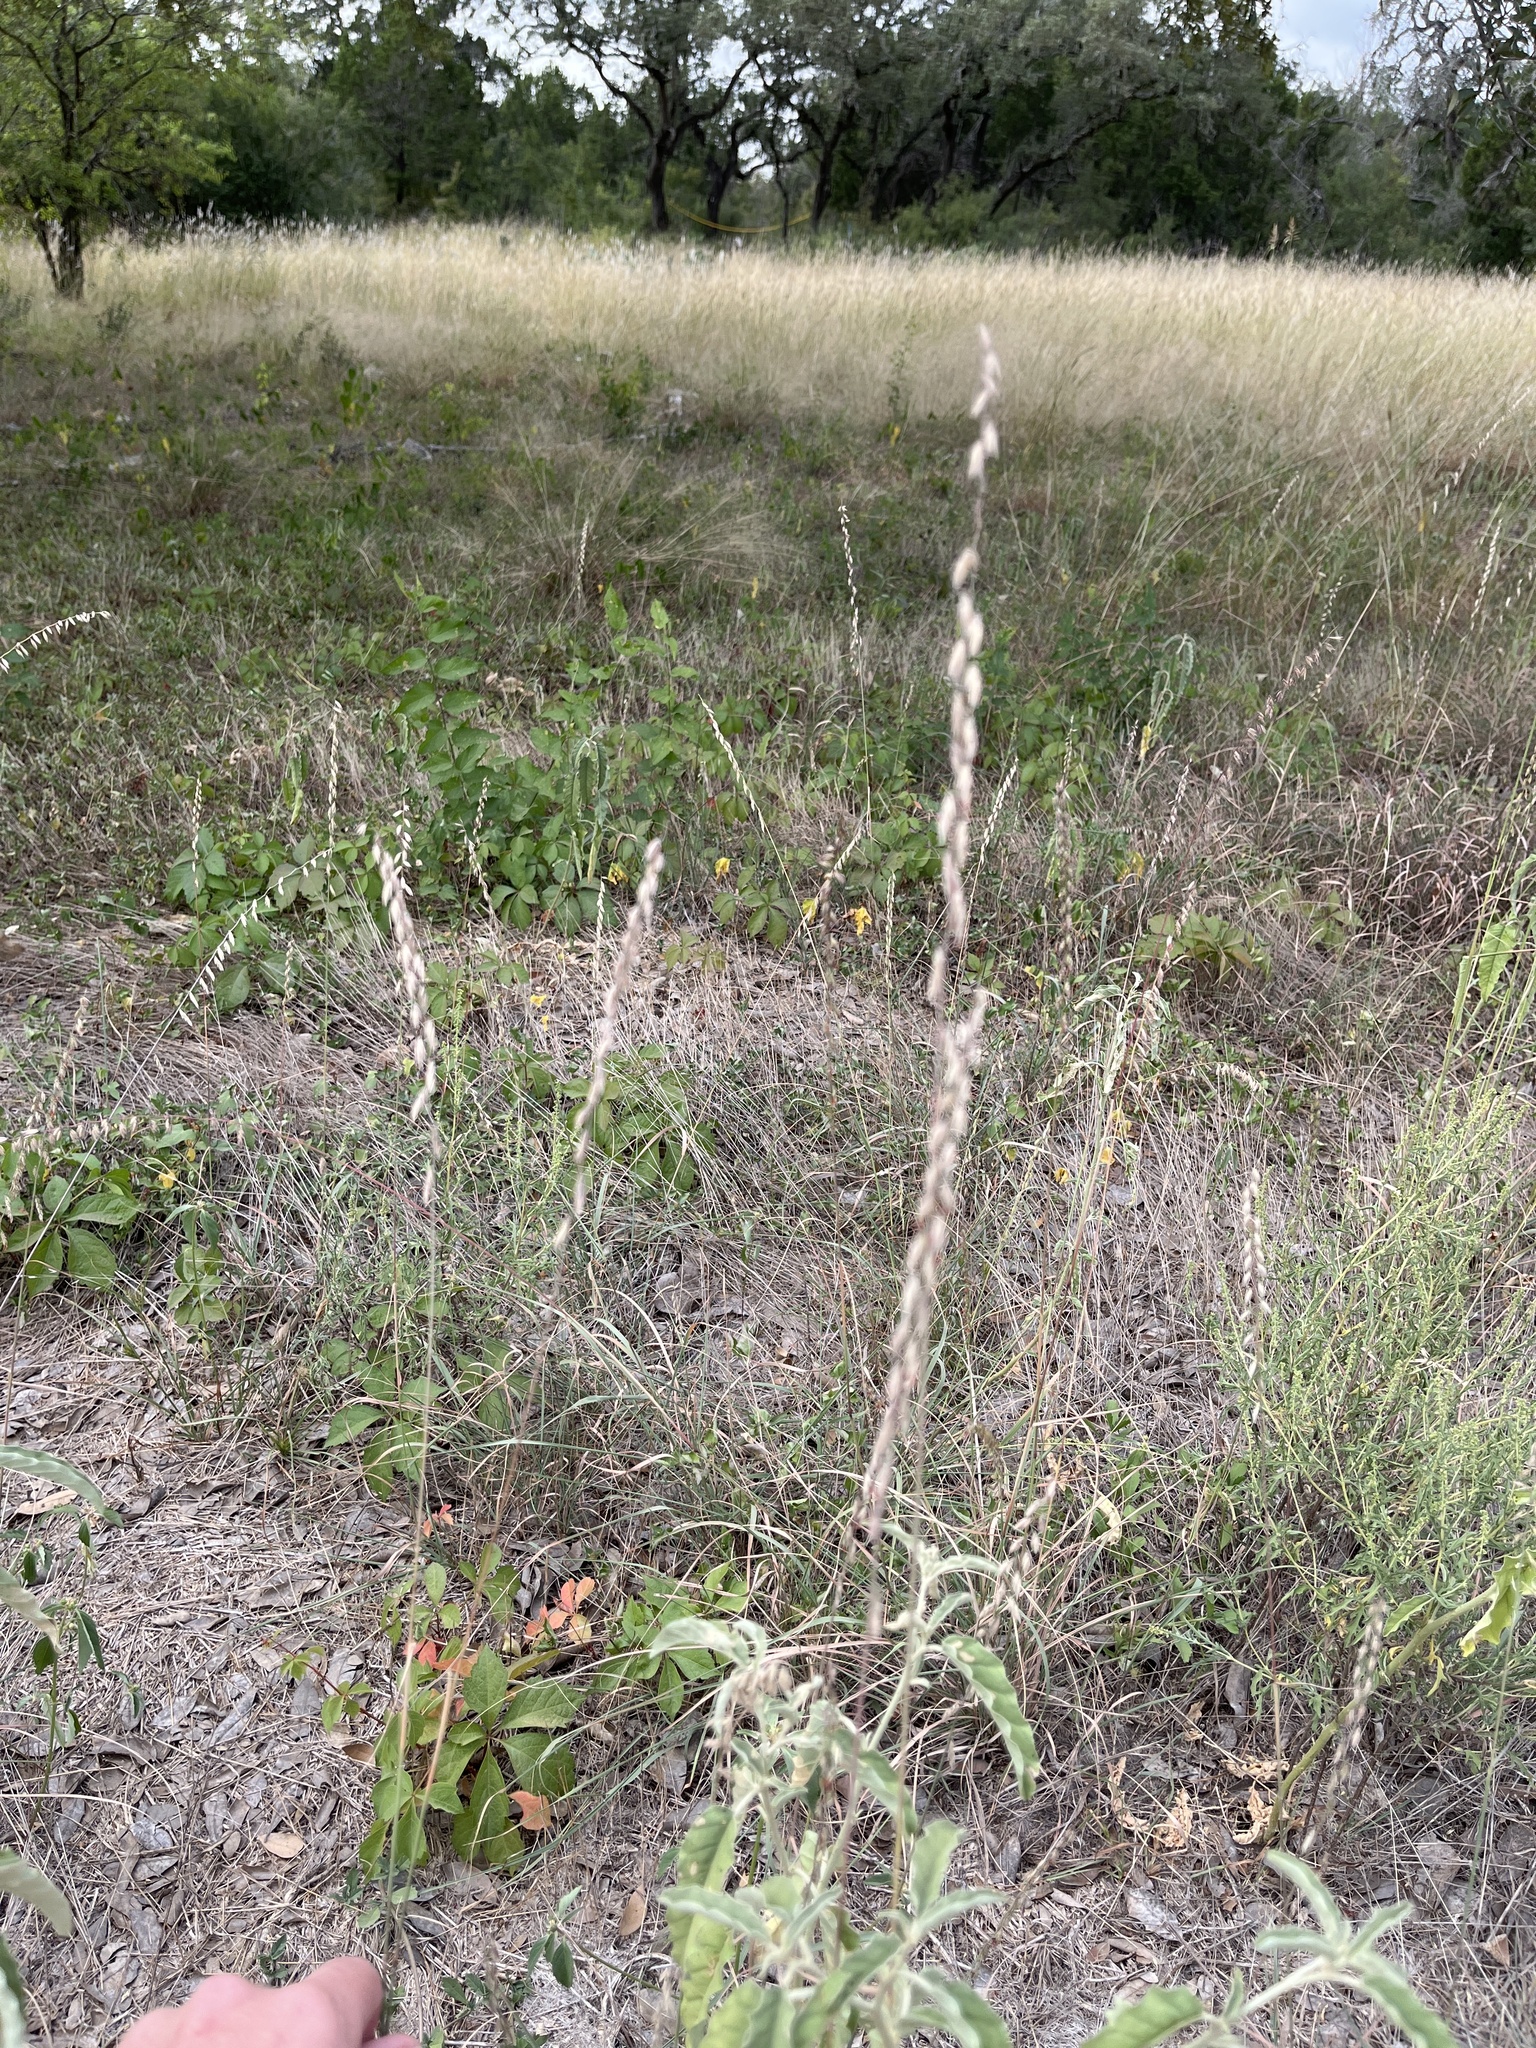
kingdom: Plantae
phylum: Tracheophyta
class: Liliopsida
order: Poales
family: Poaceae
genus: Bouteloua
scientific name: Bouteloua curtipendula
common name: Side-oats grama
